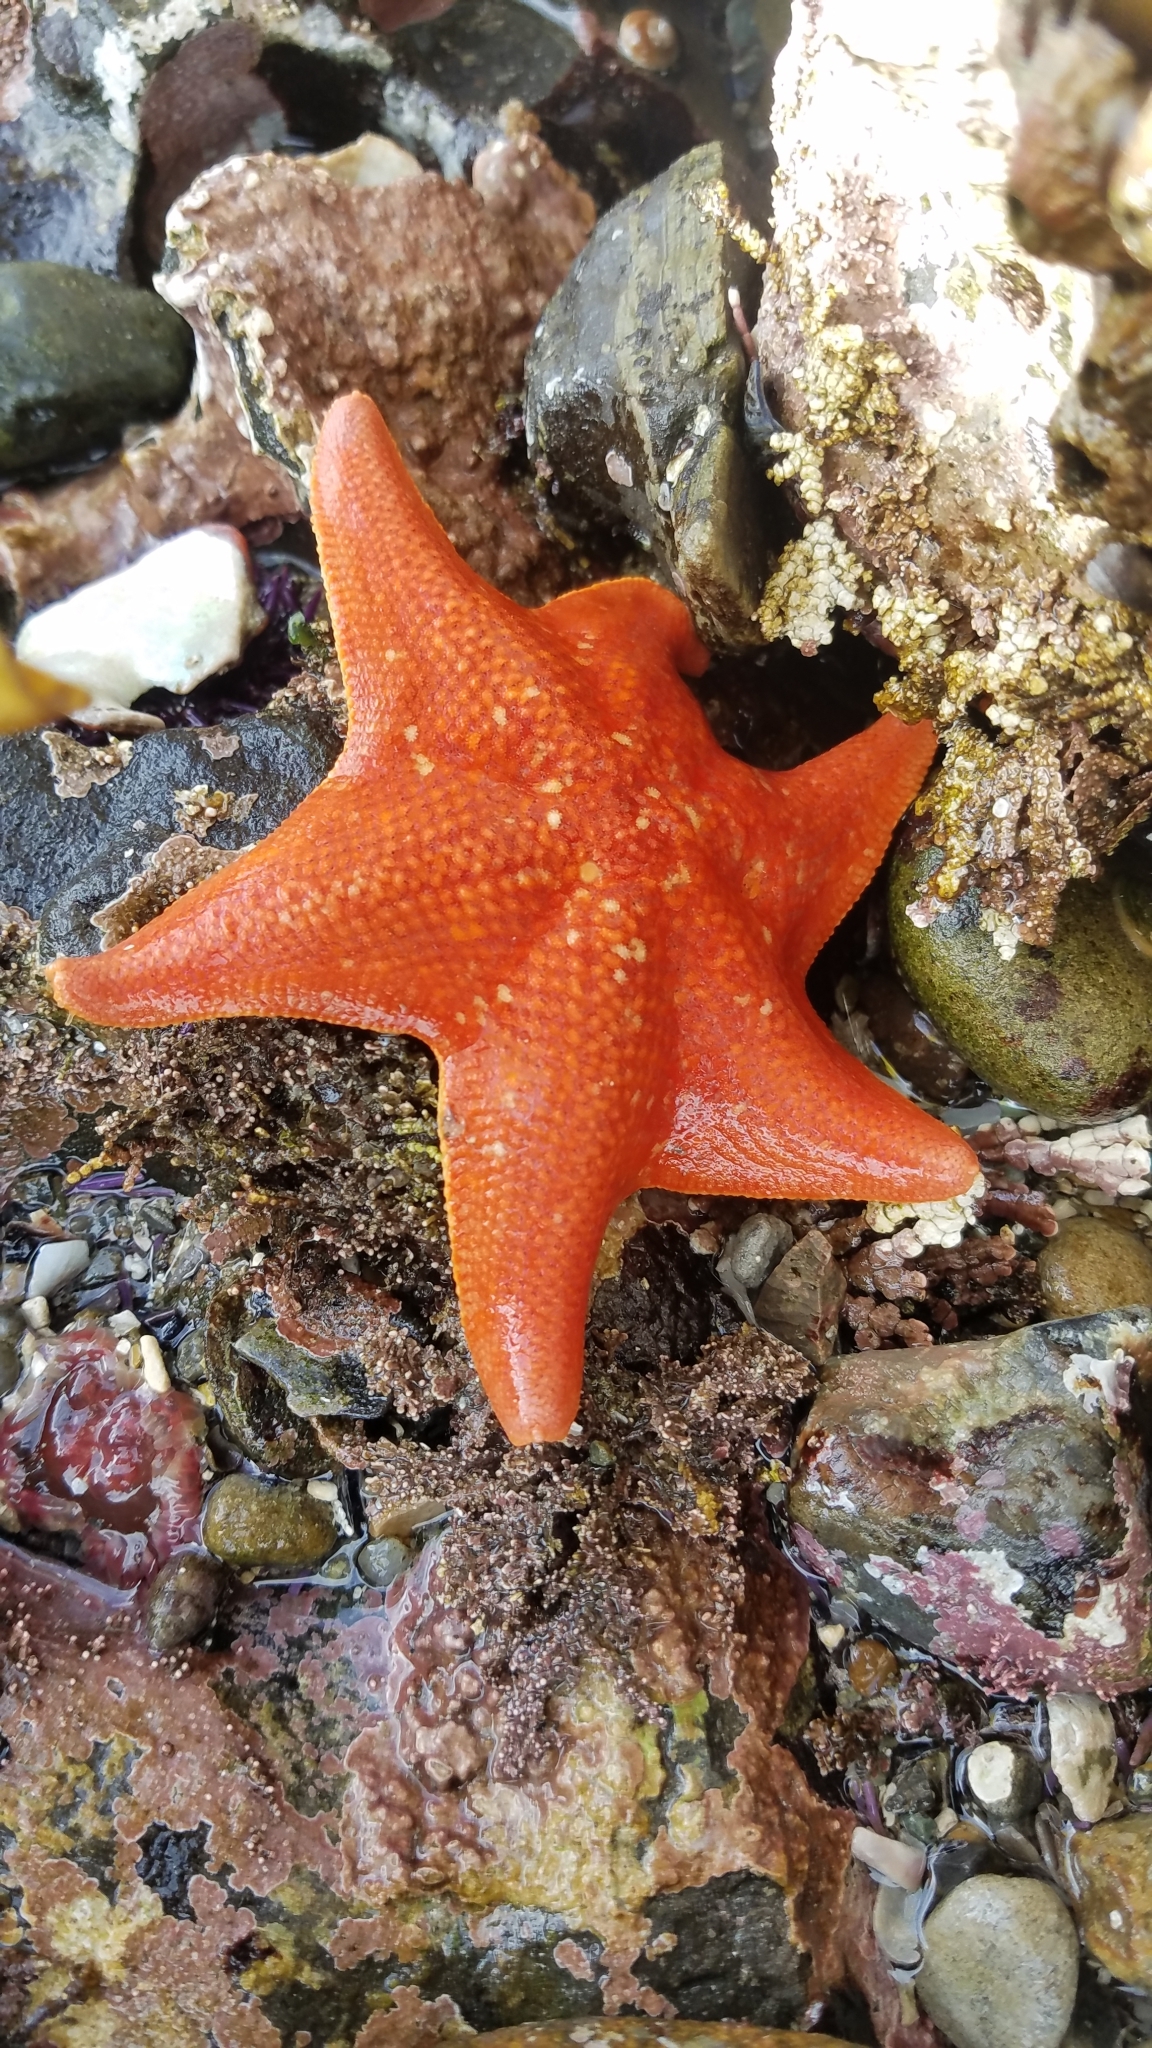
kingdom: Animalia
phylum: Echinodermata
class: Asteroidea
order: Valvatida
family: Asterinidae
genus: Patiria
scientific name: Patiria miniata
